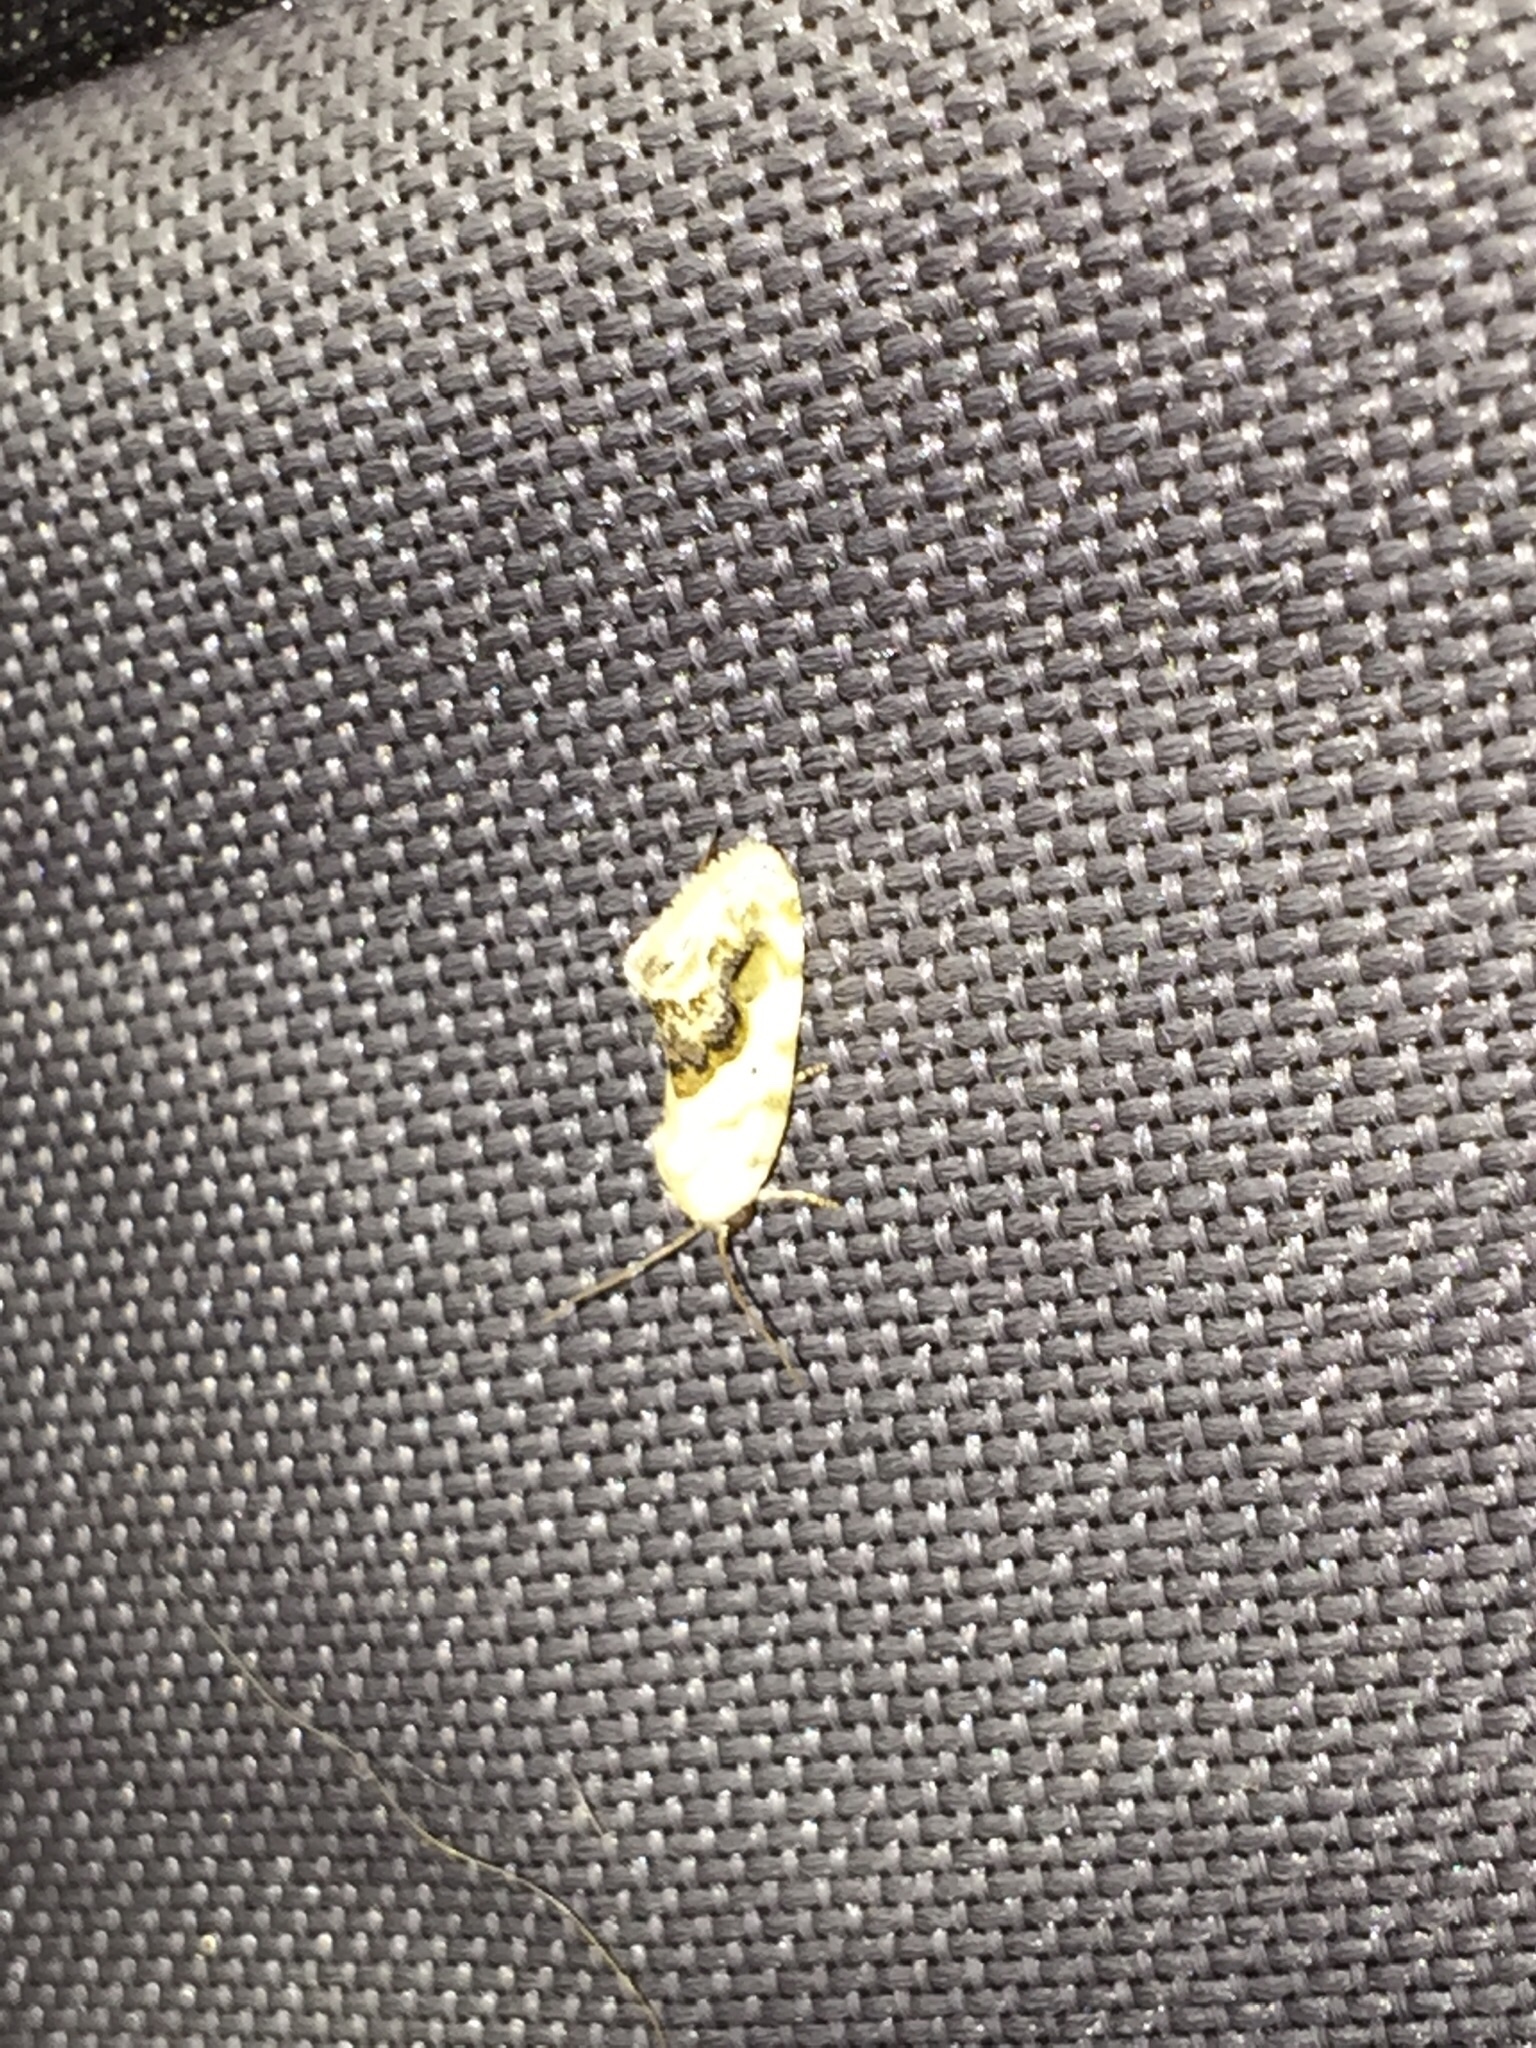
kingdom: Animalia
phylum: Arthropoda
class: Insecta
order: Lepidoptera
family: Noctuidae
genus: Acontia
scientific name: Acontia erastrioides
